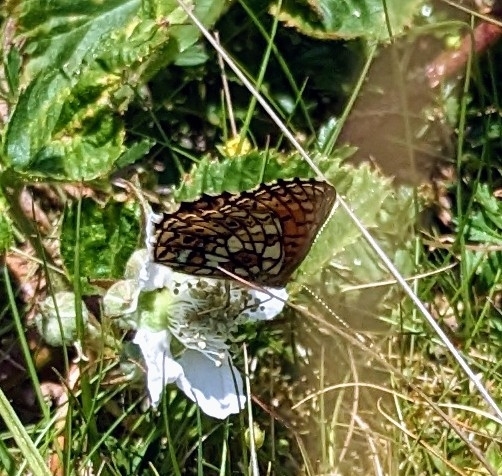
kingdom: Animalia
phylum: Arthropoda
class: Insecta
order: Lepidoptera
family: Nymphalidae
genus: Boloria
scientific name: Boloria selene
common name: Small pearl-bordered fritillary
